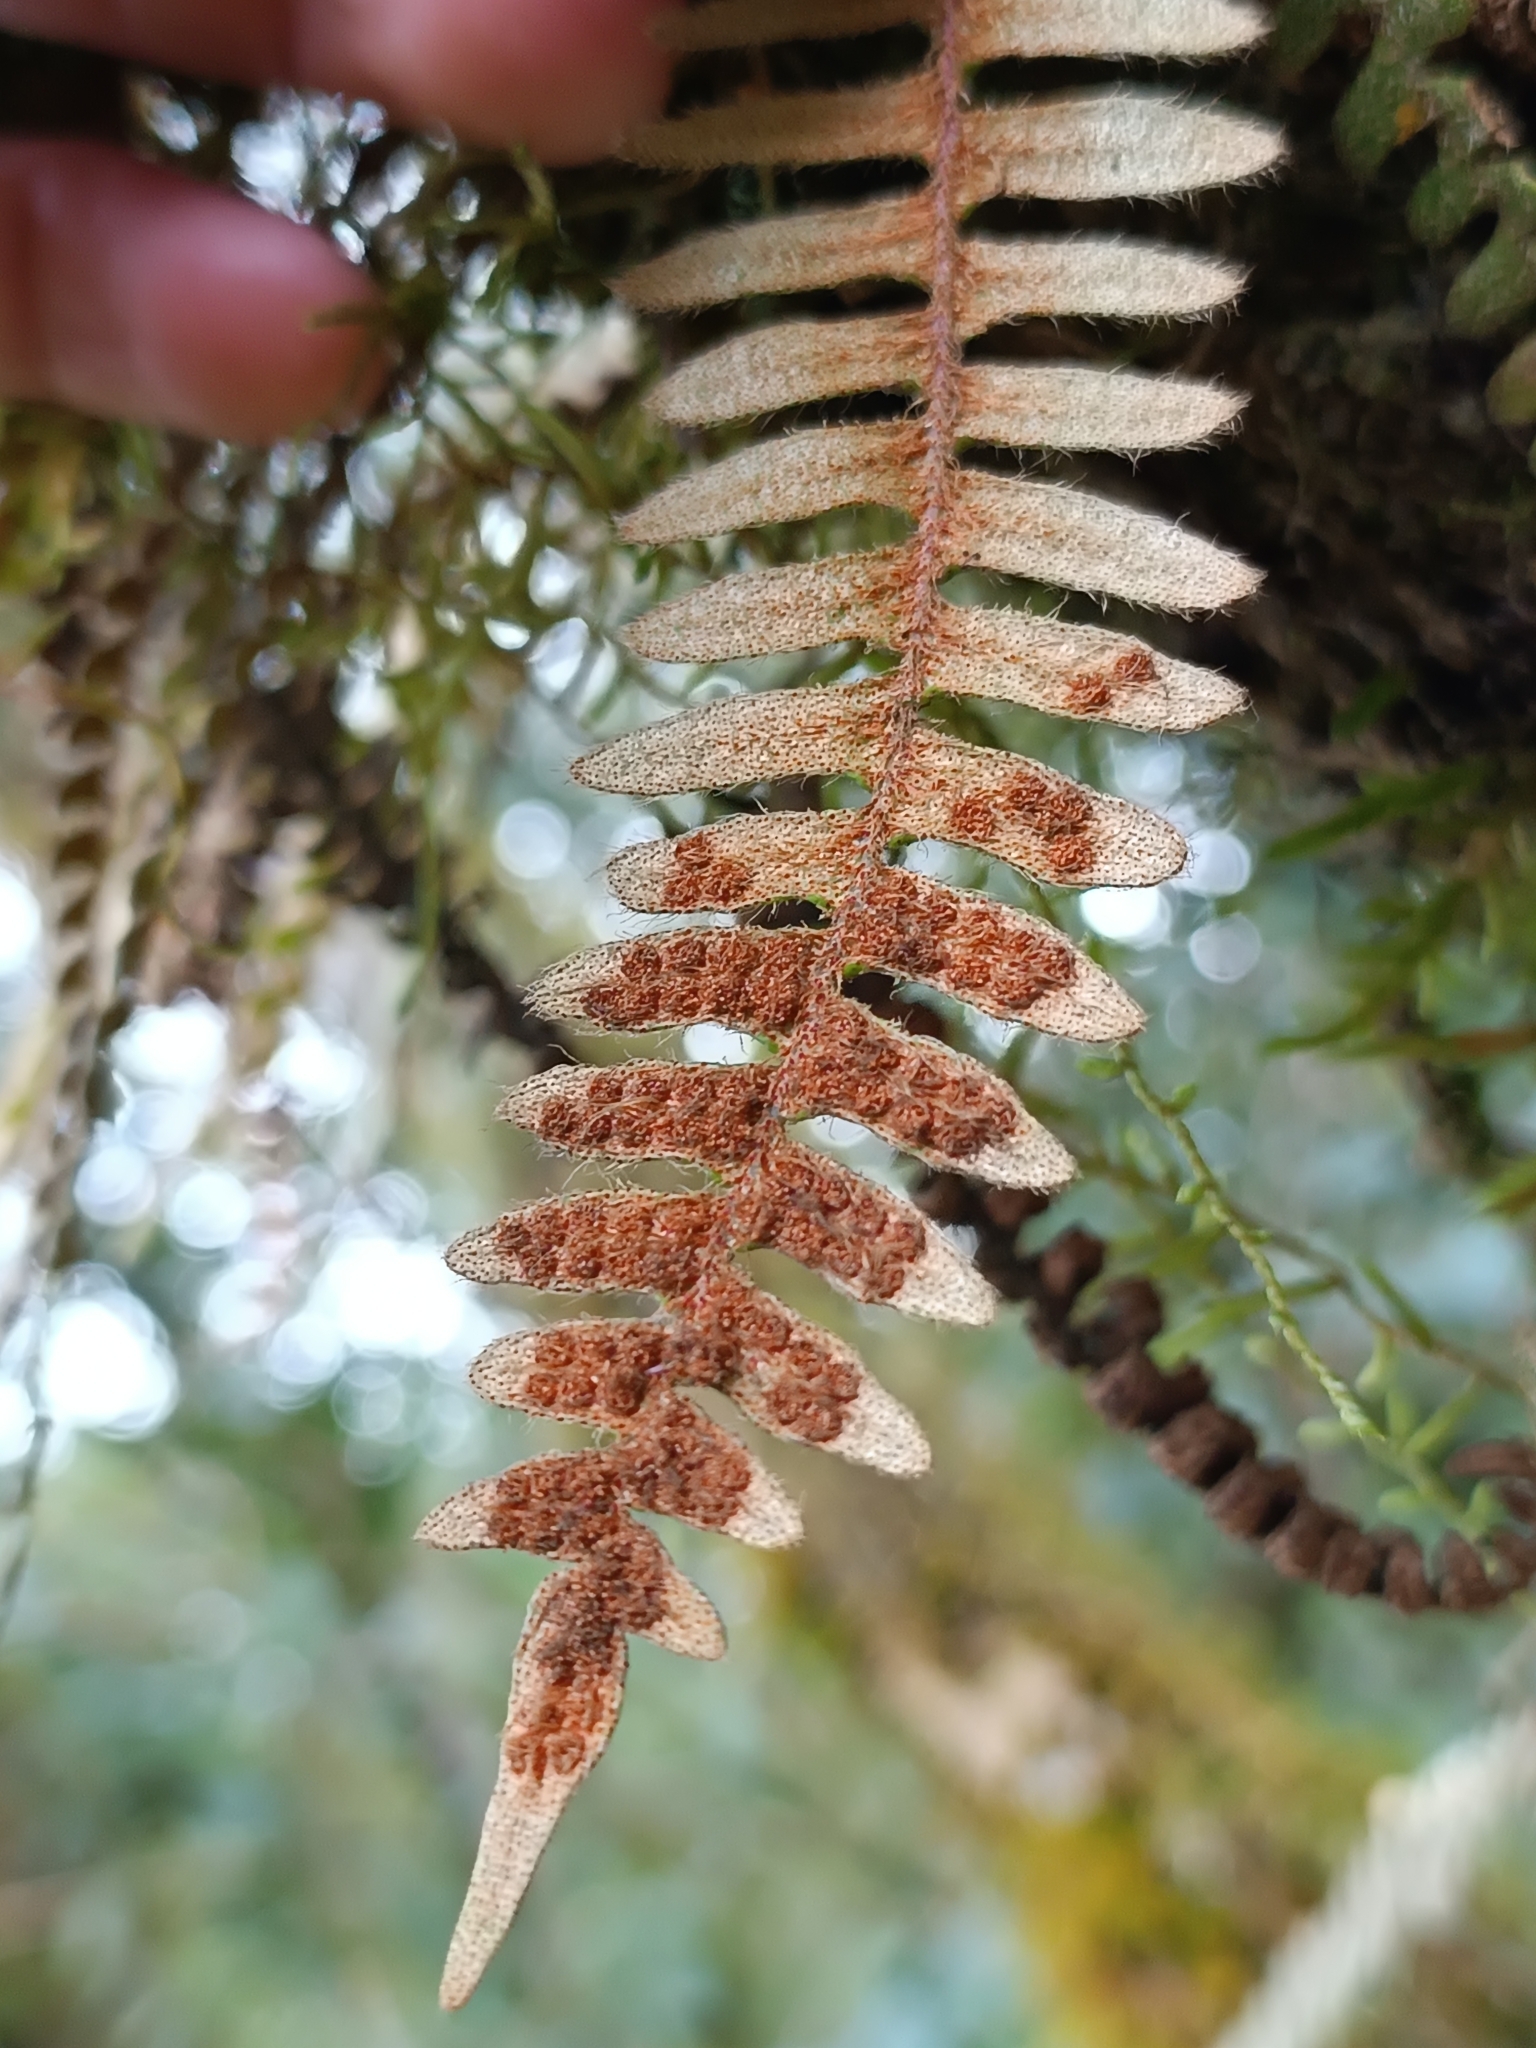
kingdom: Plantae
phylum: Tracheophyta
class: Polypodiopsida
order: Polypodiales
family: Polypodiaceae
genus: Pleopeltis
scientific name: Pleopeltis hirsutissima
